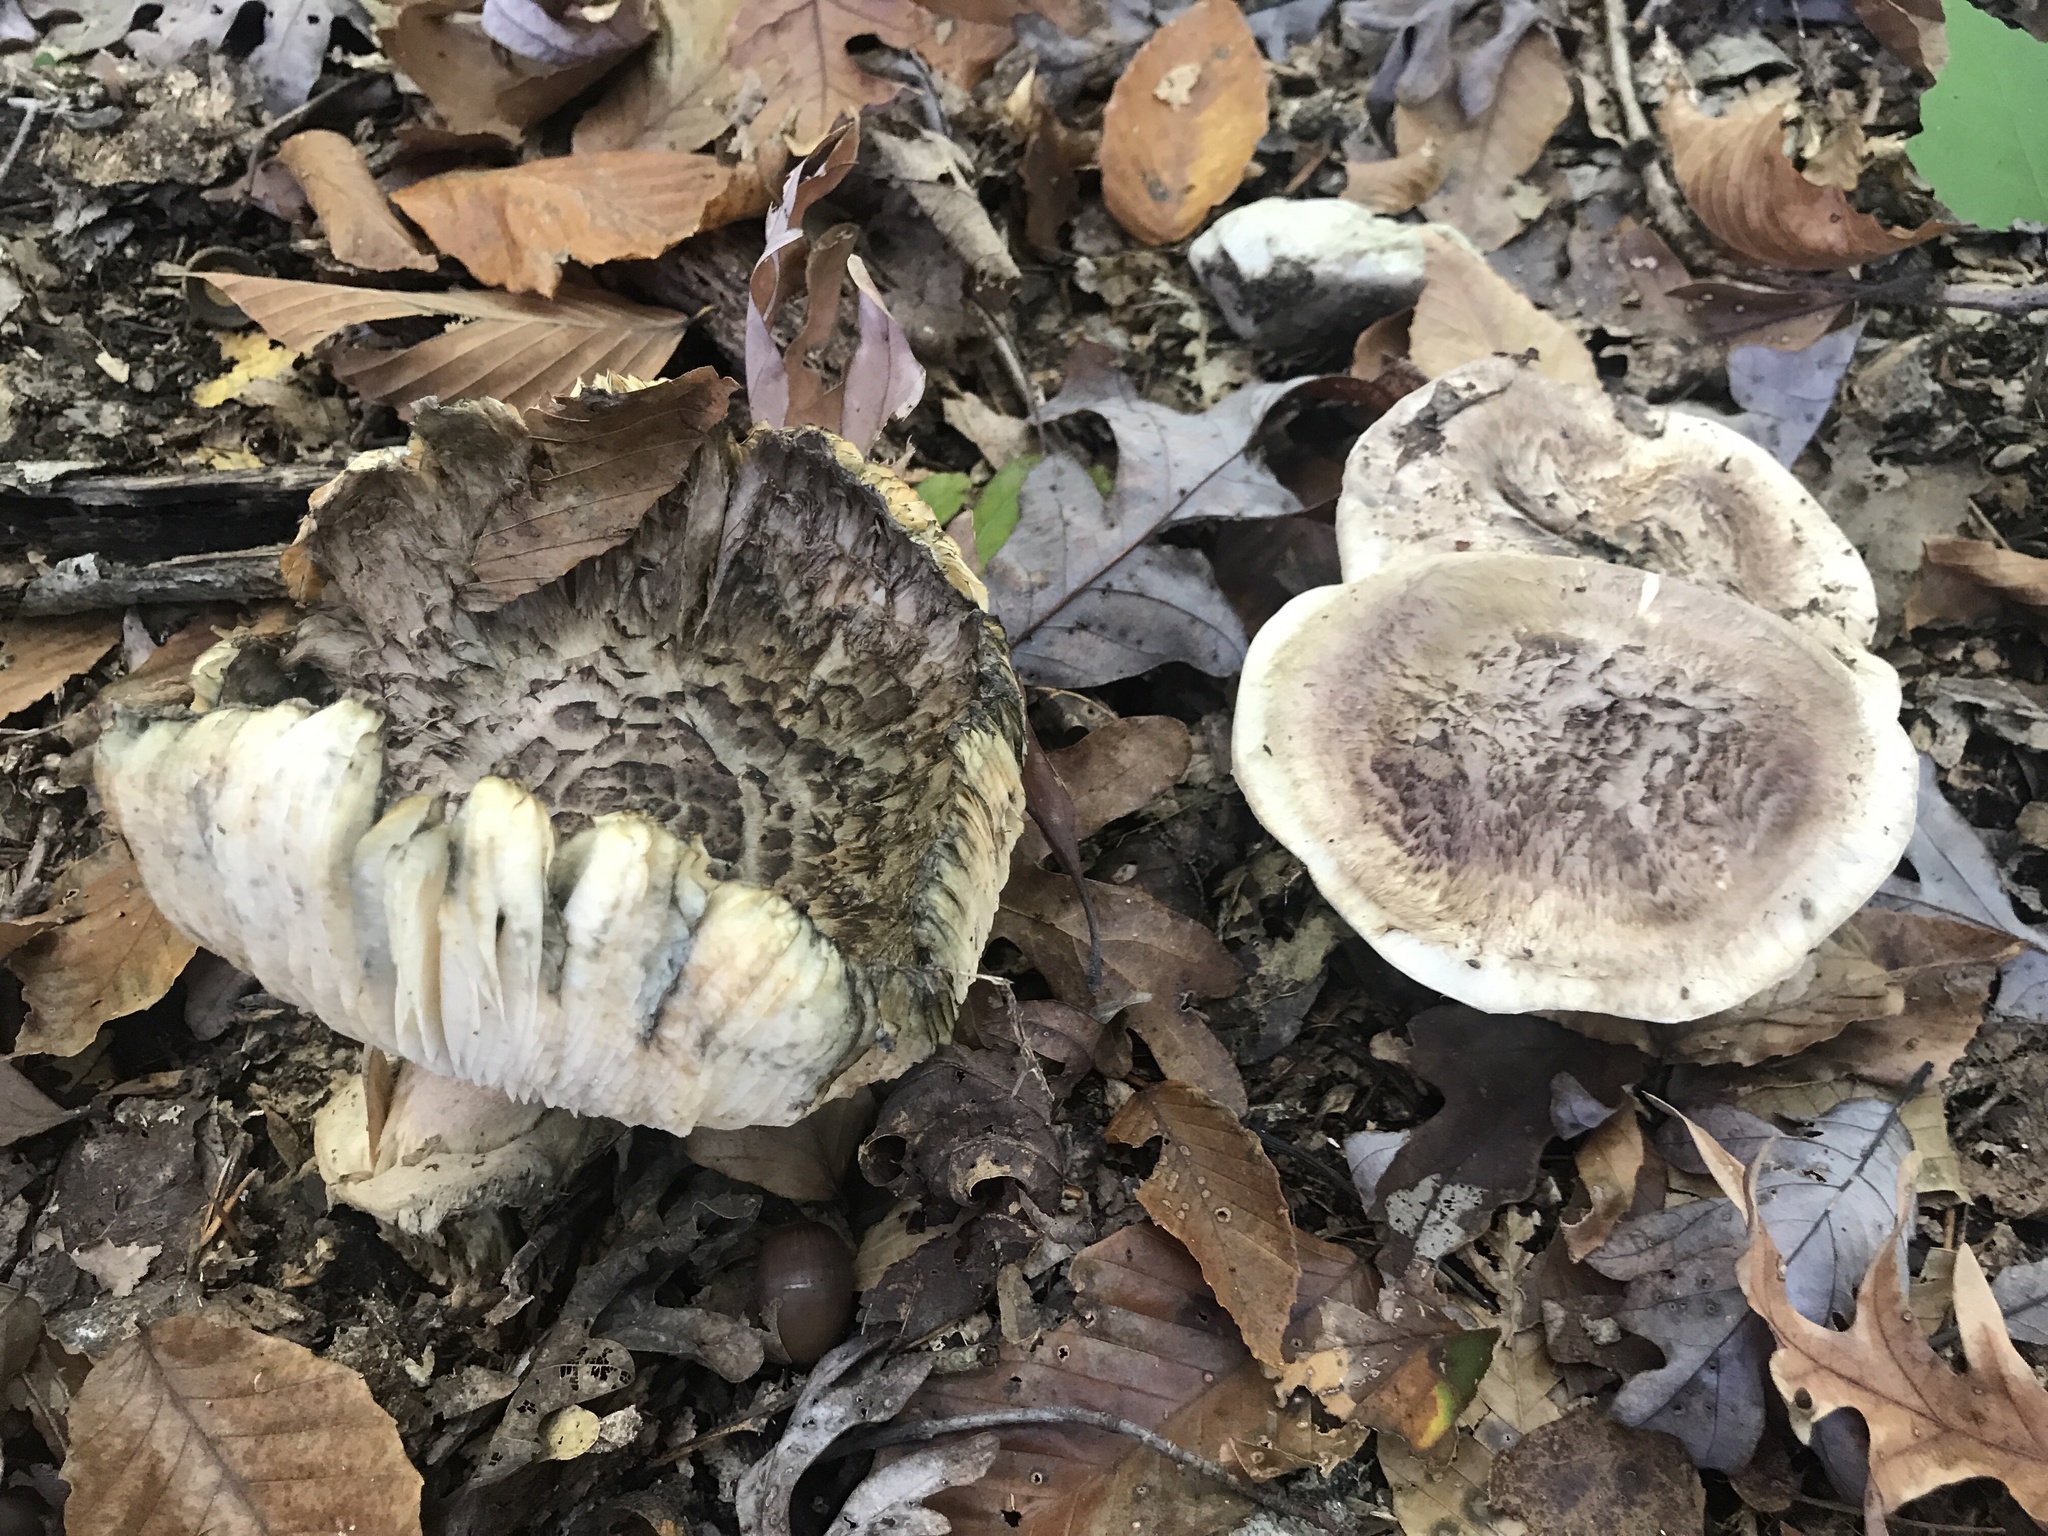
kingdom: Fungi
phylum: Basidiomycota
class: Agaricomycetes
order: Agaricales
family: Tricholomataceae
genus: Tricholoma
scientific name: Tricholoma caligatum
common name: True booted knight
